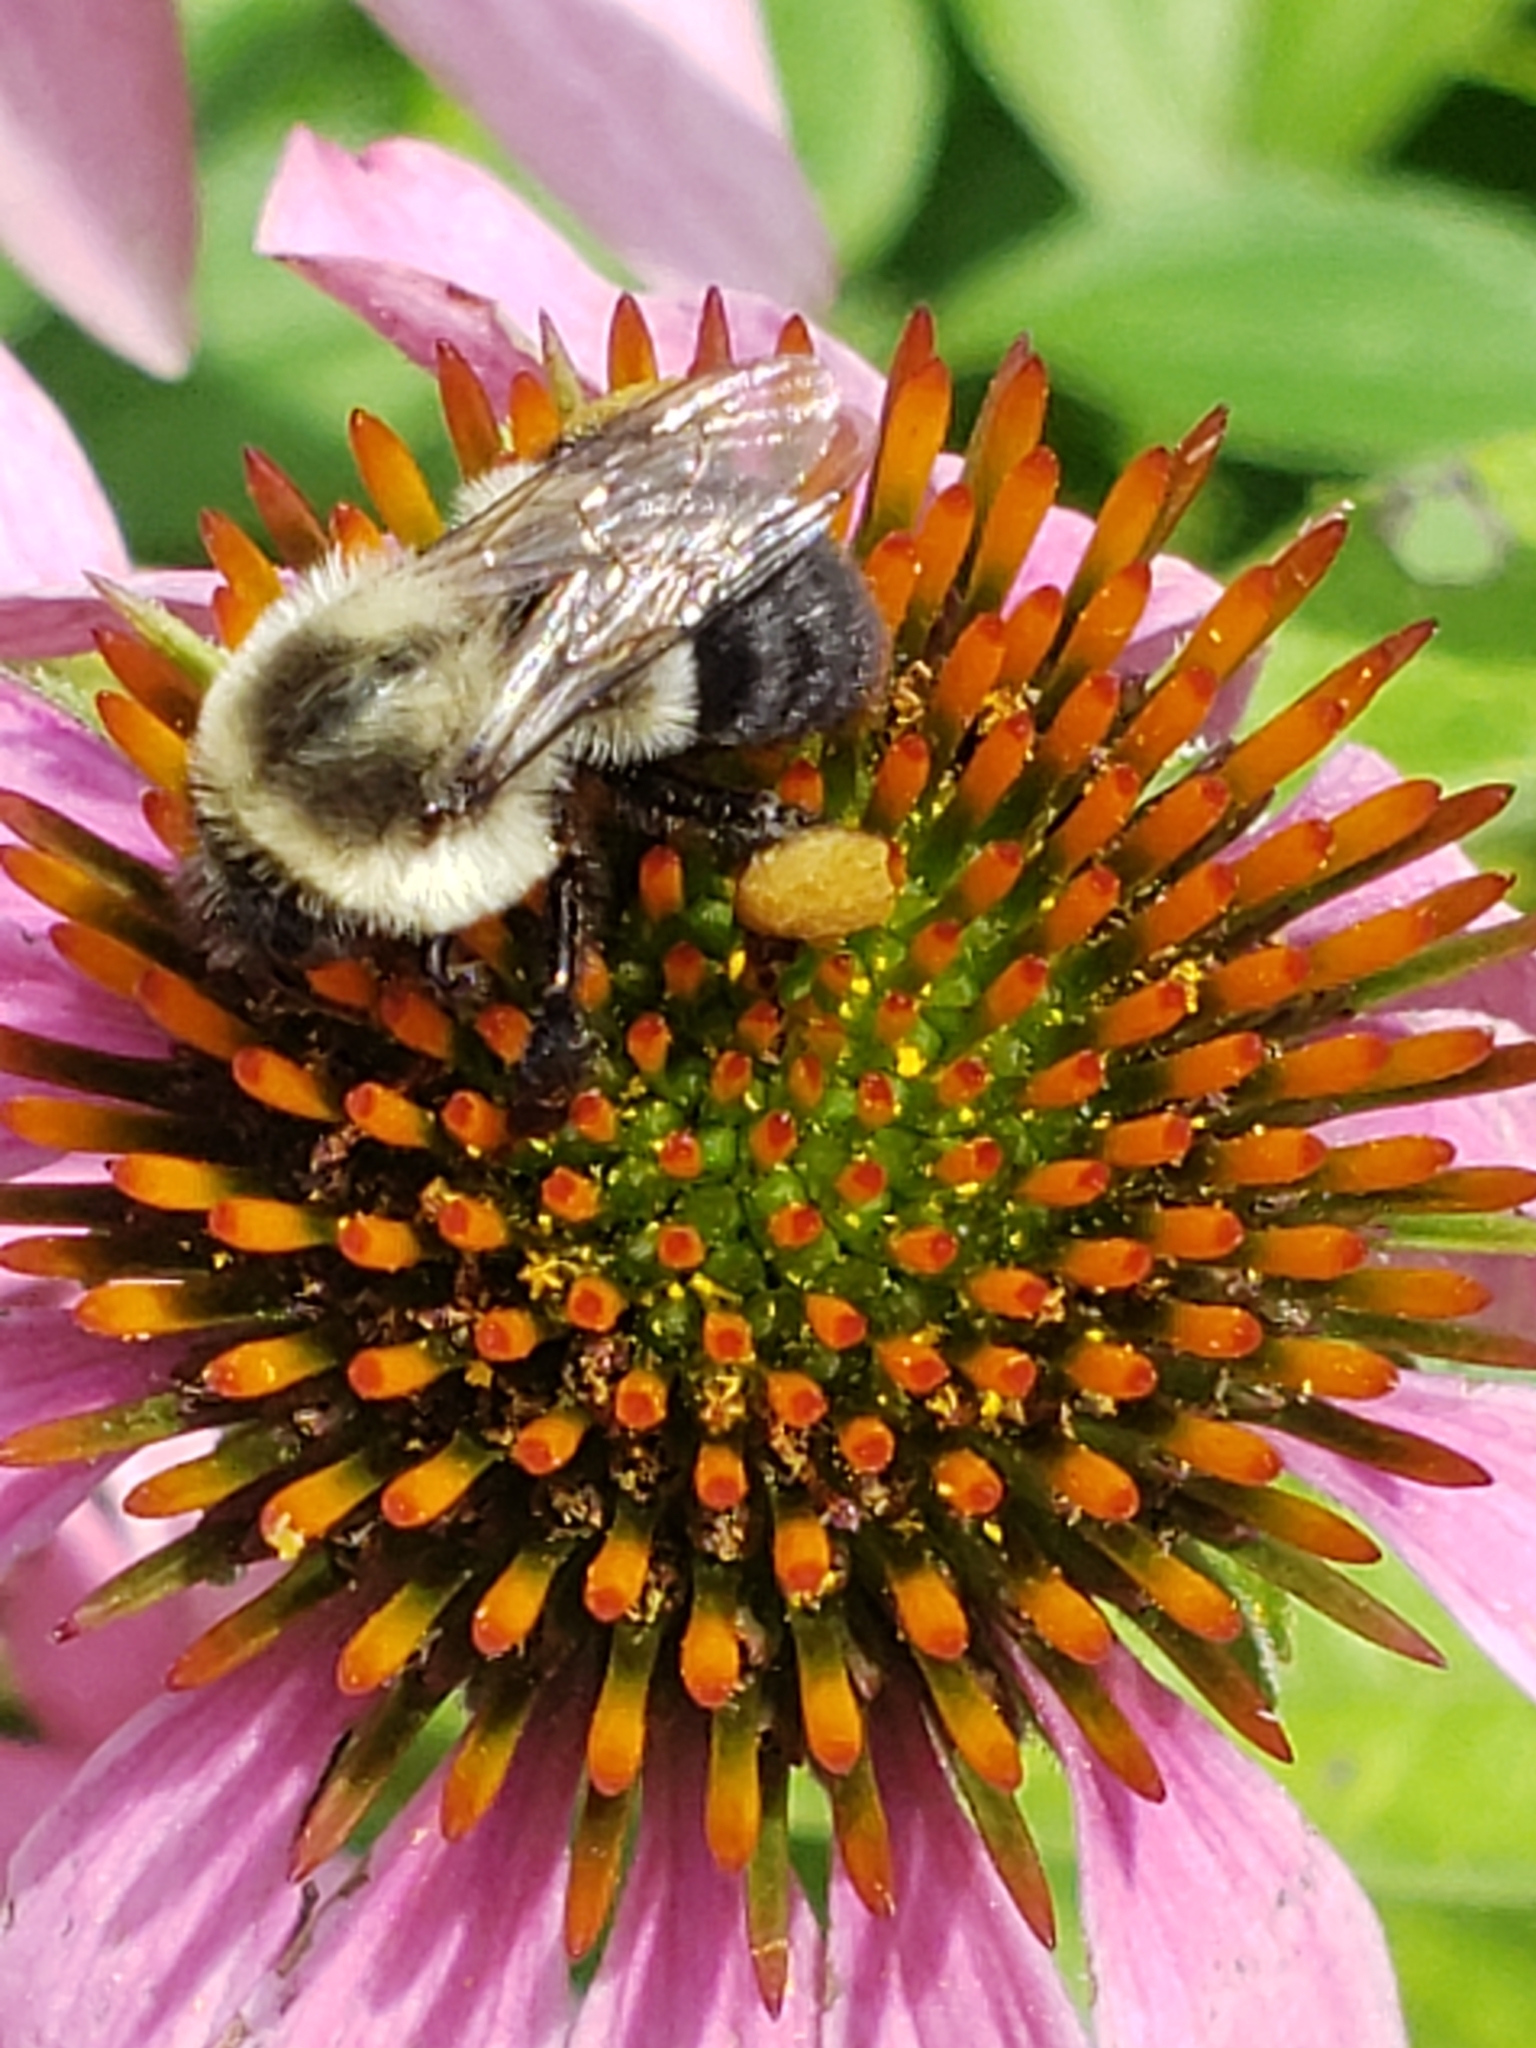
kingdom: Animalia
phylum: Arthropoda
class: Insecta
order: Hymenoptera
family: Apidae
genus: Bombus
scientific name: Bombus impatiens
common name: Common eastern bumble bee
